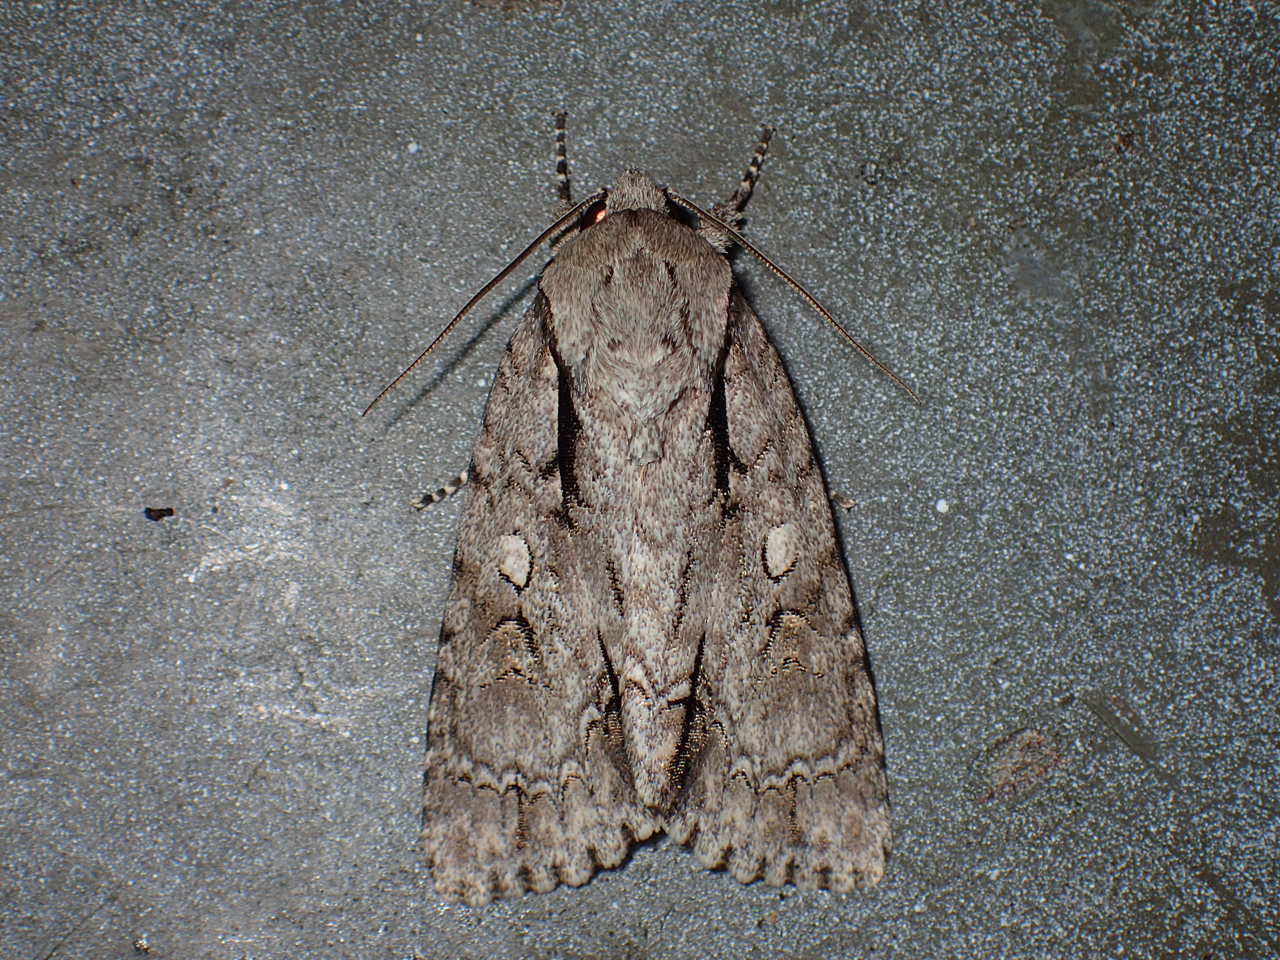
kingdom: Animalia
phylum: Arthropoda
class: Insecta
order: Lepidoptera
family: Noctuidae
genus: Acronicta
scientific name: Acronicta hasta
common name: Cherry dagger
